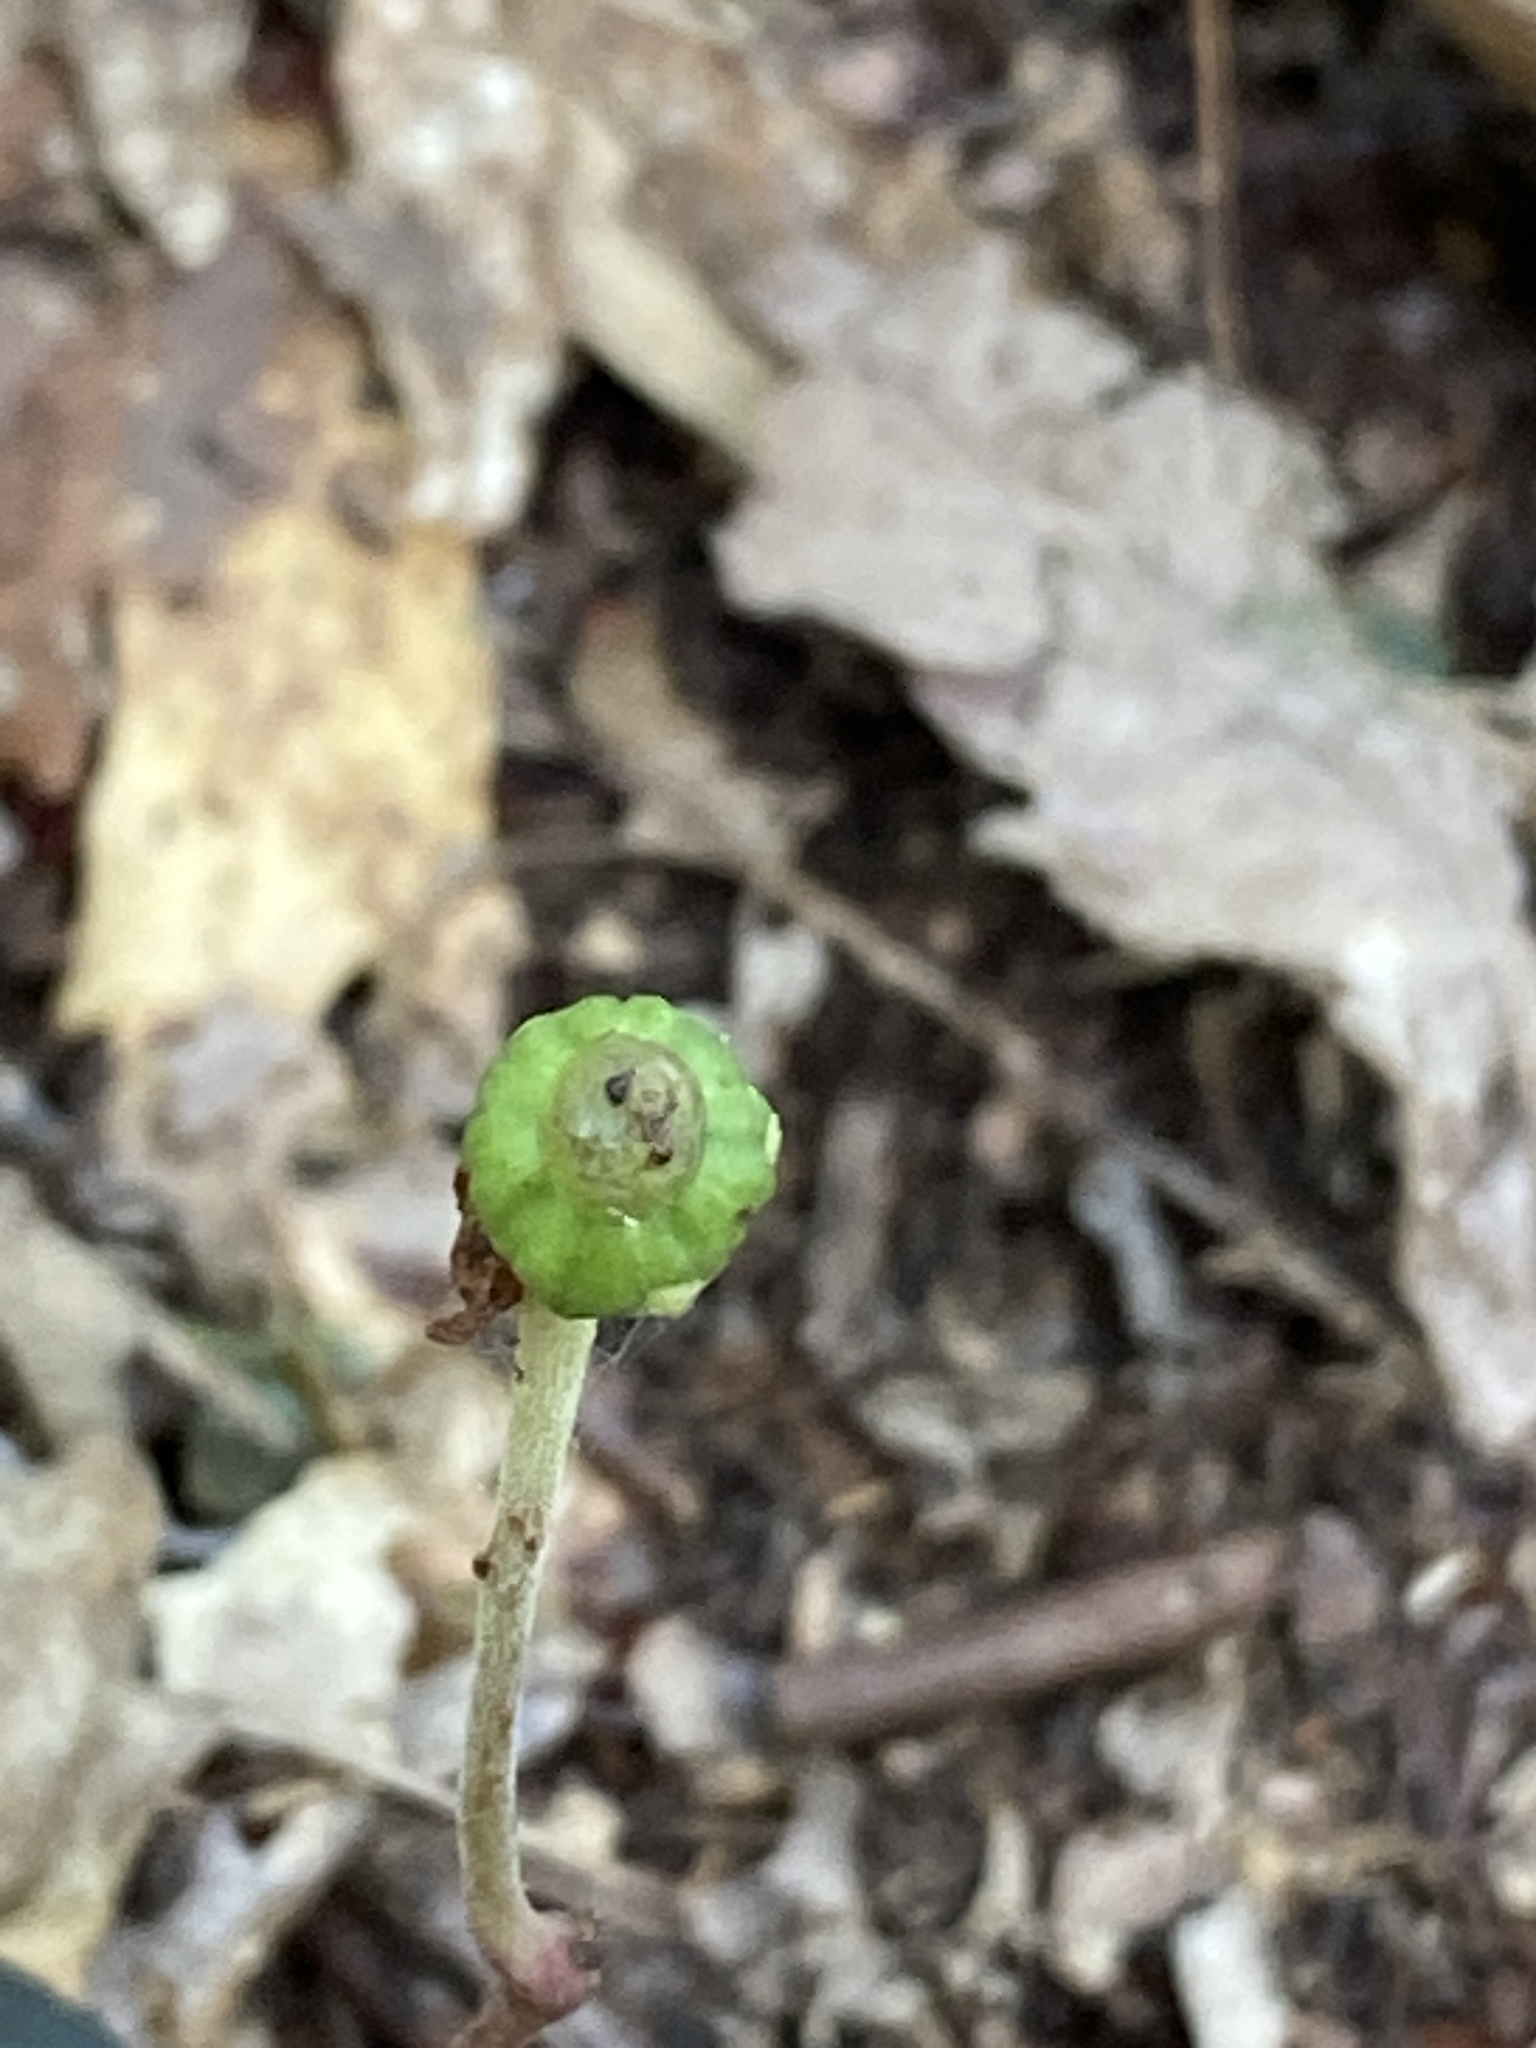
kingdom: Plantae
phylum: Tracheophyta
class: Magnoliopsida
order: Ericales
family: Ericaceae
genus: Chimaphila
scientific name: Chimaphila maculata
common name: Spotted pipsissewa
